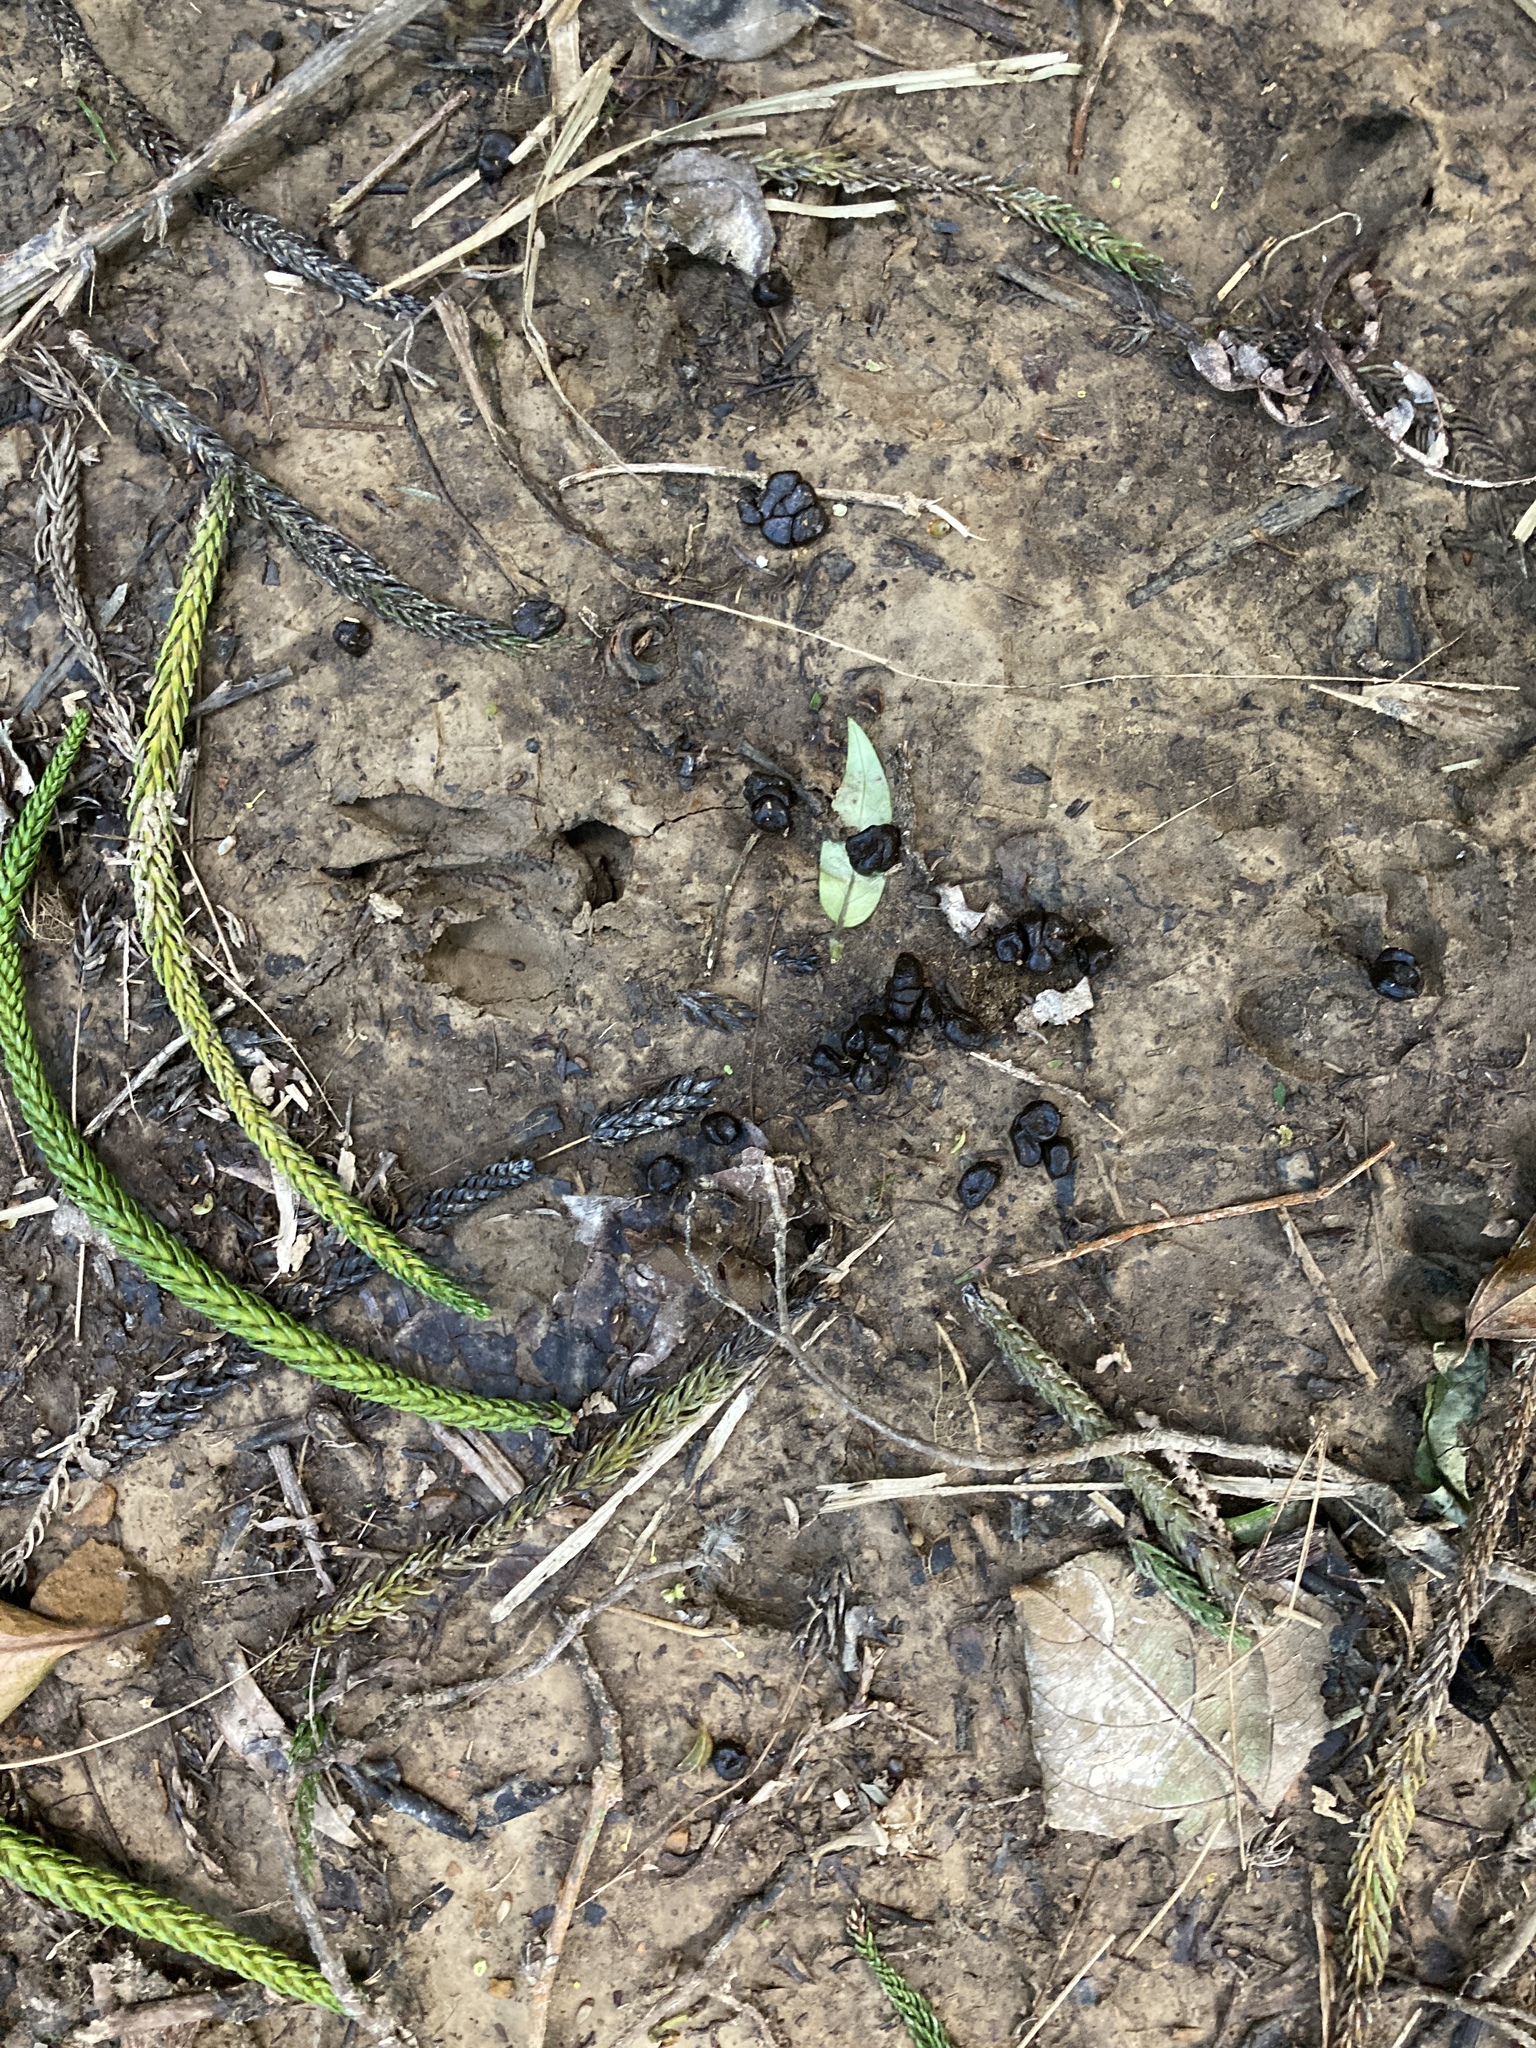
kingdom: Animalia
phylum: Chordata
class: Mammalia
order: Artiodactyla
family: Cervidae
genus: Muntiacus
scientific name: Muntiacus reevesi
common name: Reeves' muntjac
